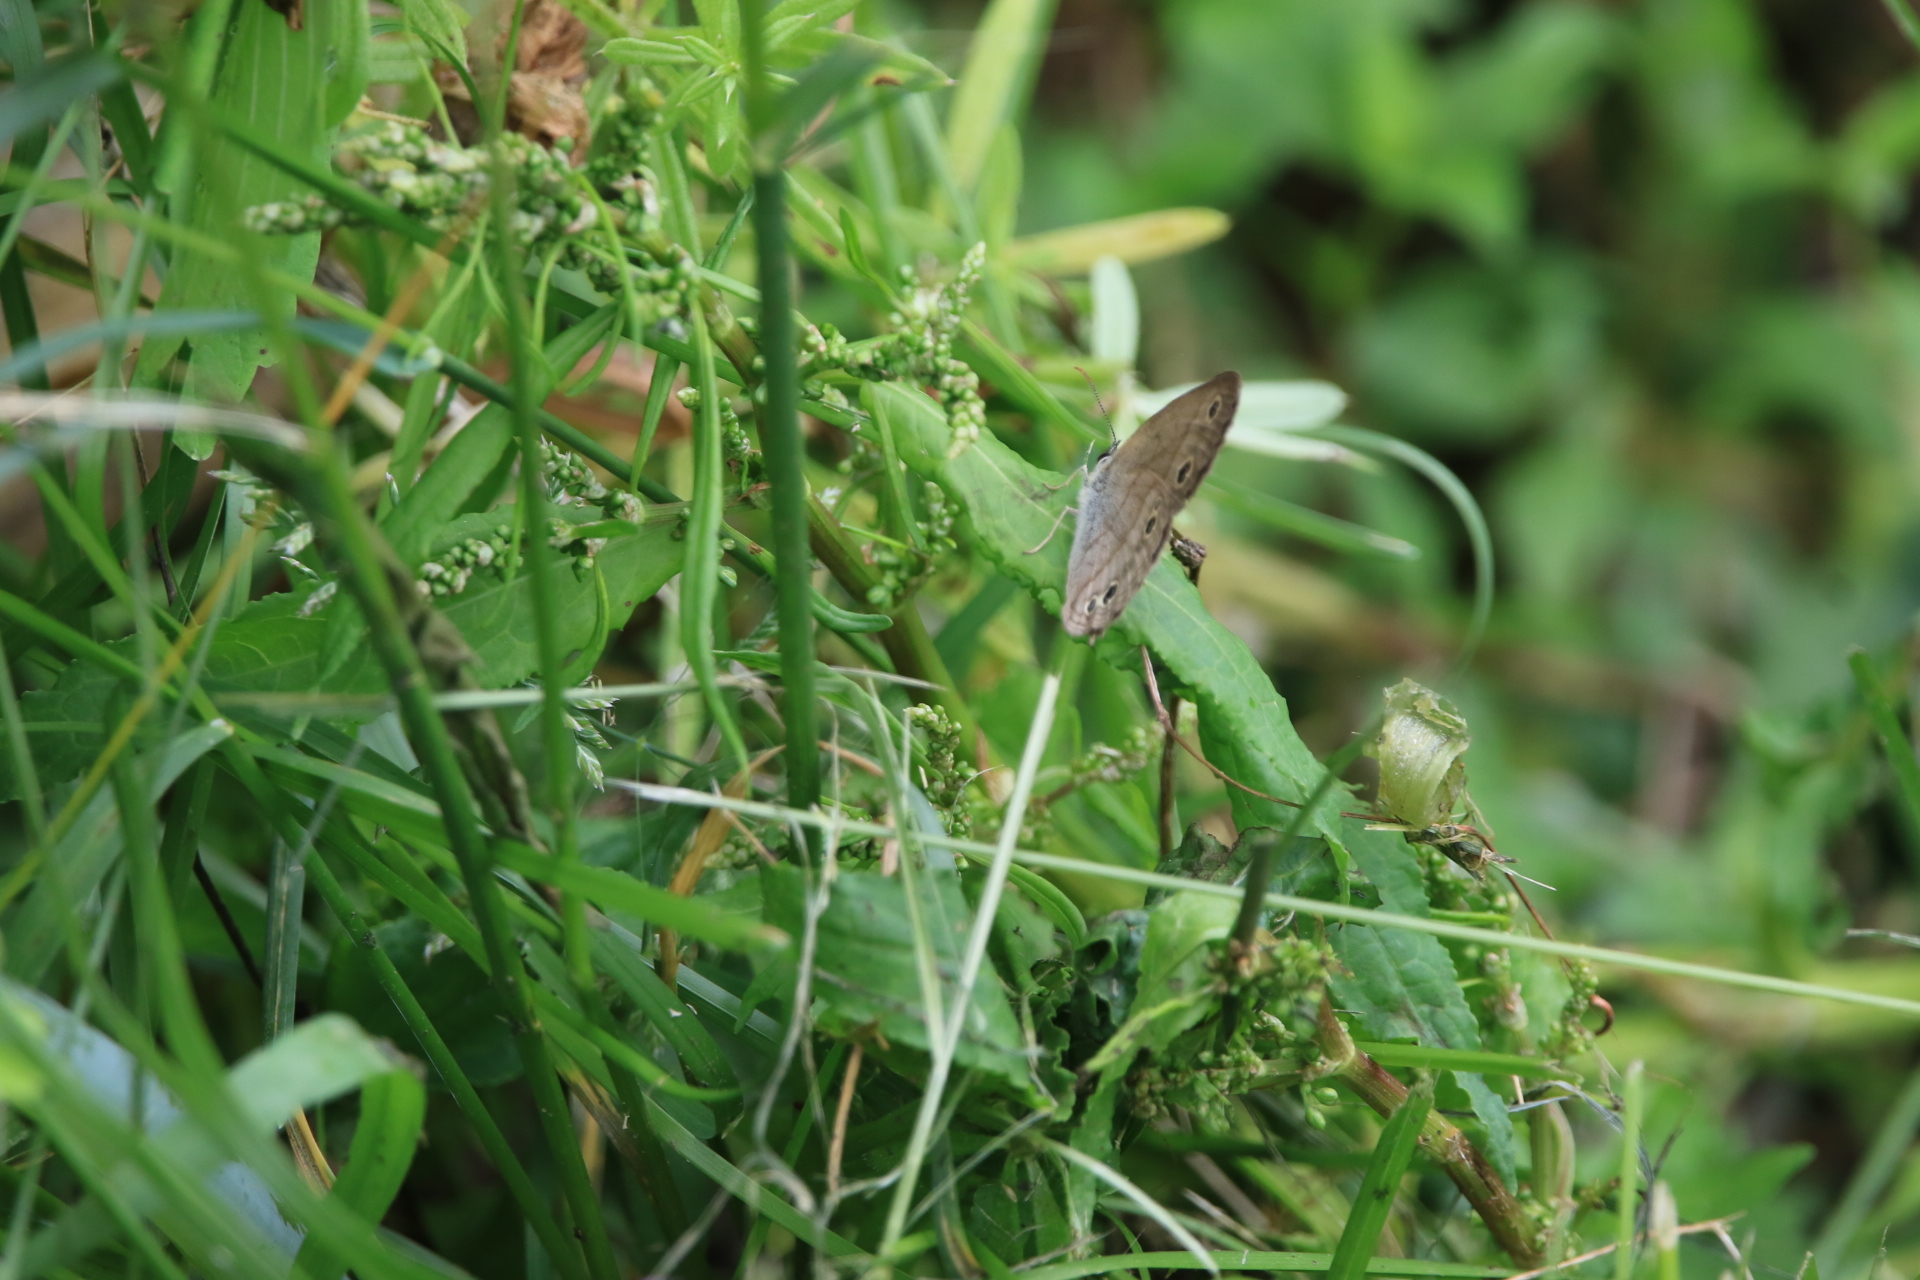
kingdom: Animalia
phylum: Arthropoda
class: Insecta
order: Lepidoptera
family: Nymphalidae
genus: Euptychia
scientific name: Euptychia cymela
